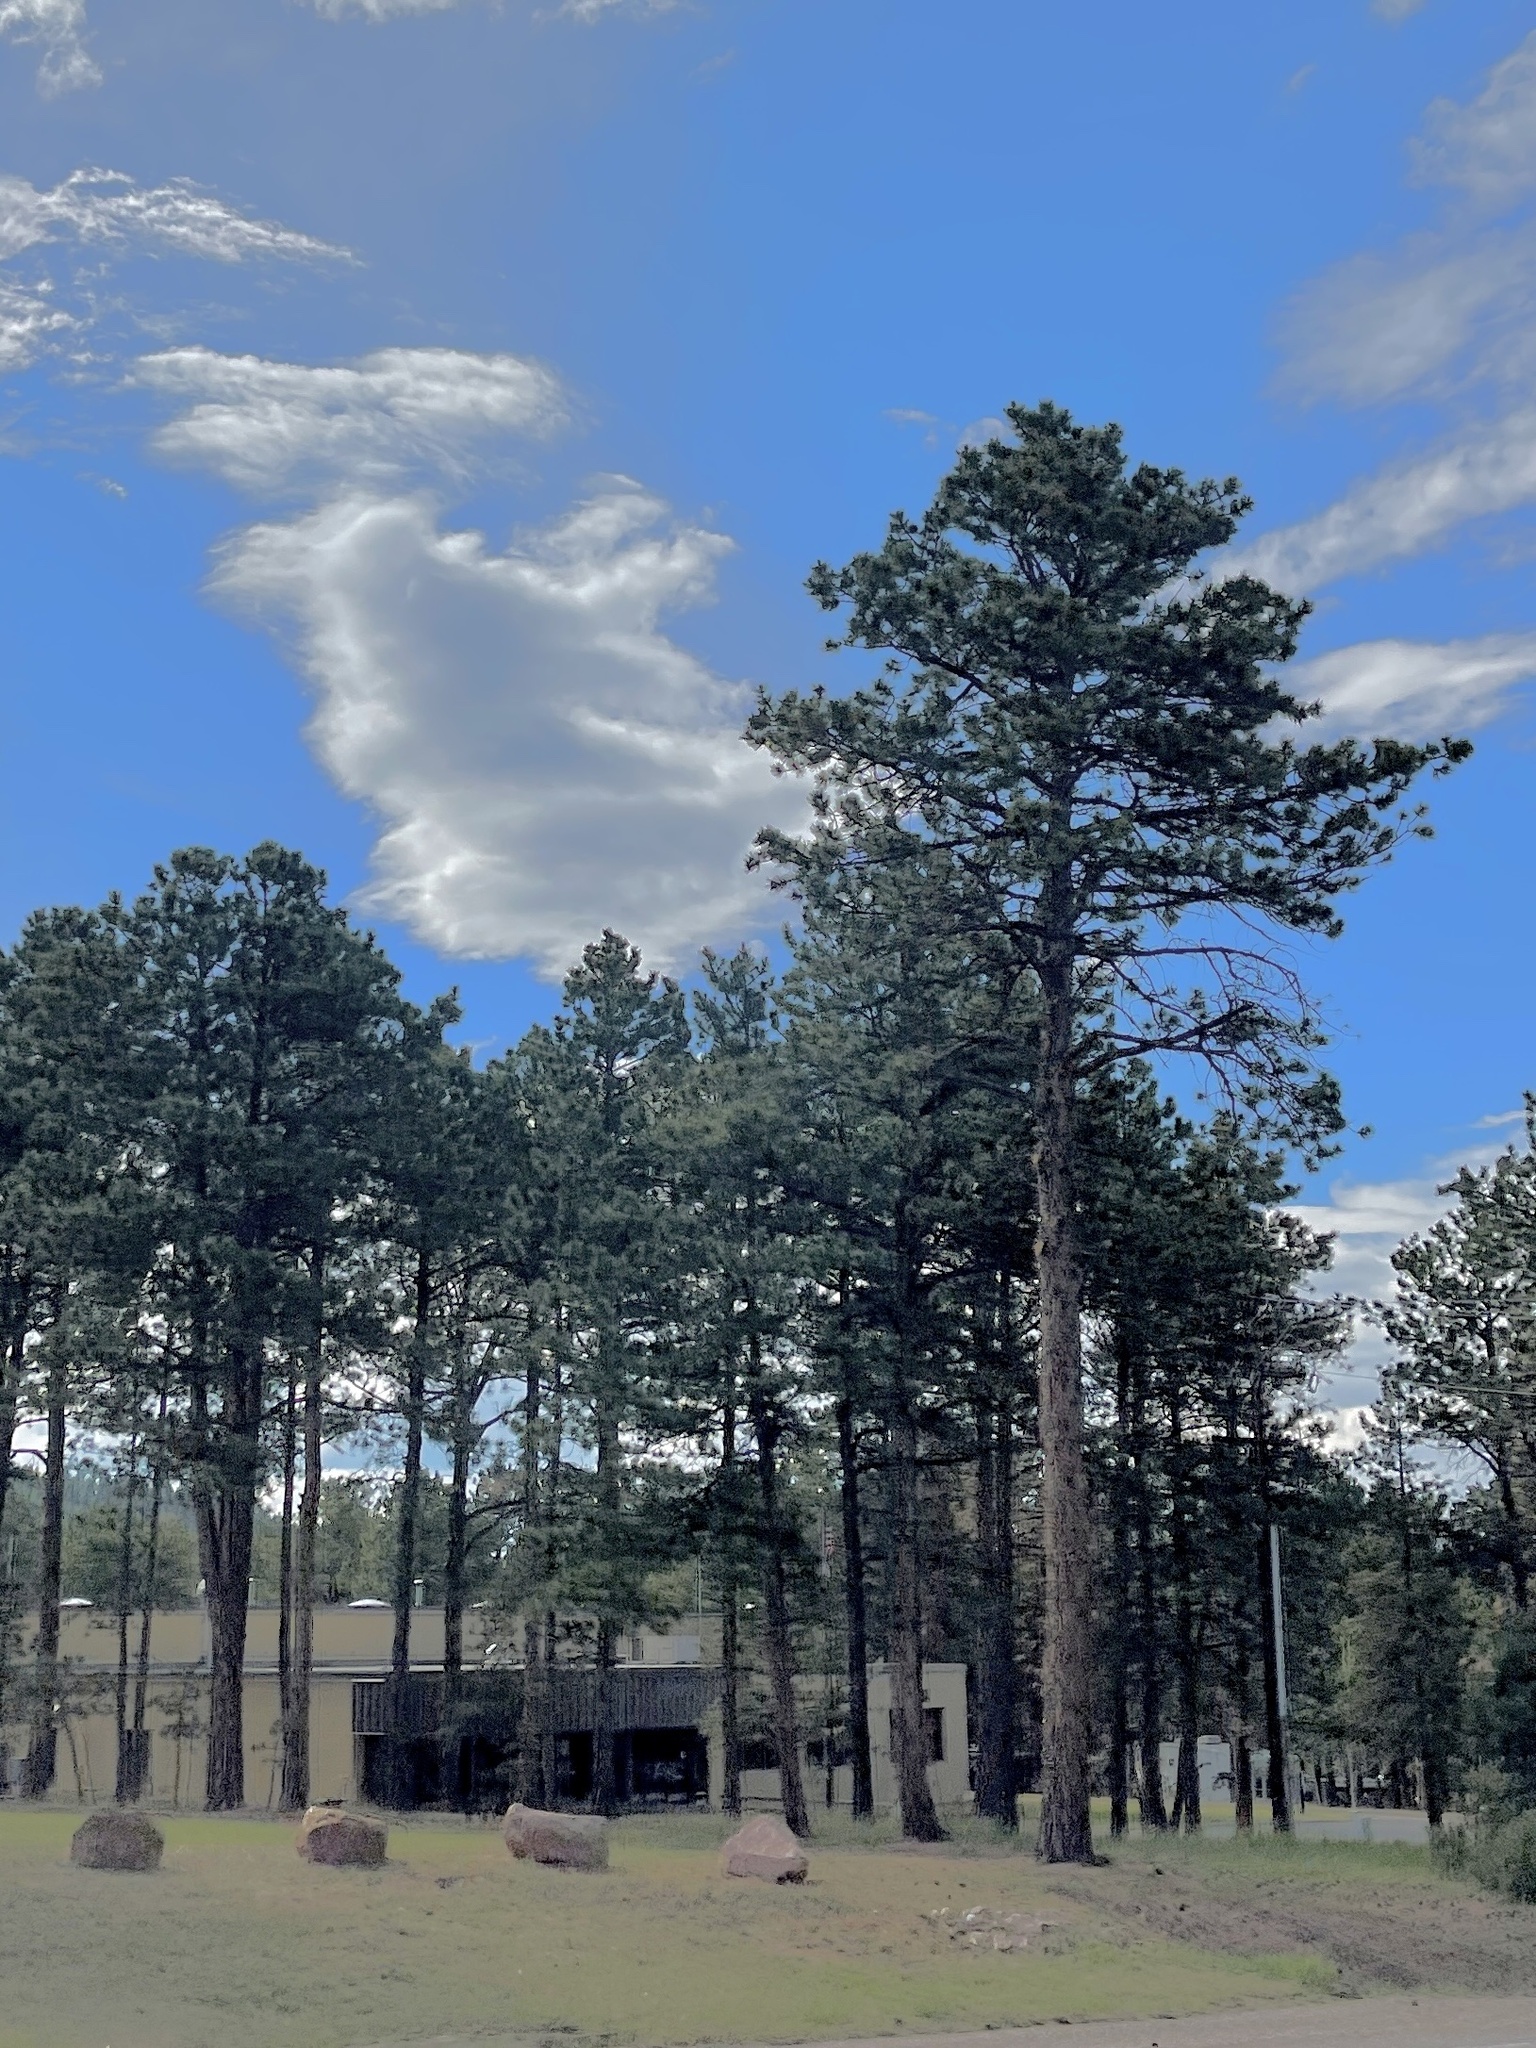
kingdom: Plantae
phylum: Tracheophyta
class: Pinopsida
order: Pinales
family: Pinaceae
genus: Pinus
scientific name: Pinus ponderosa
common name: Western yellow-pine
